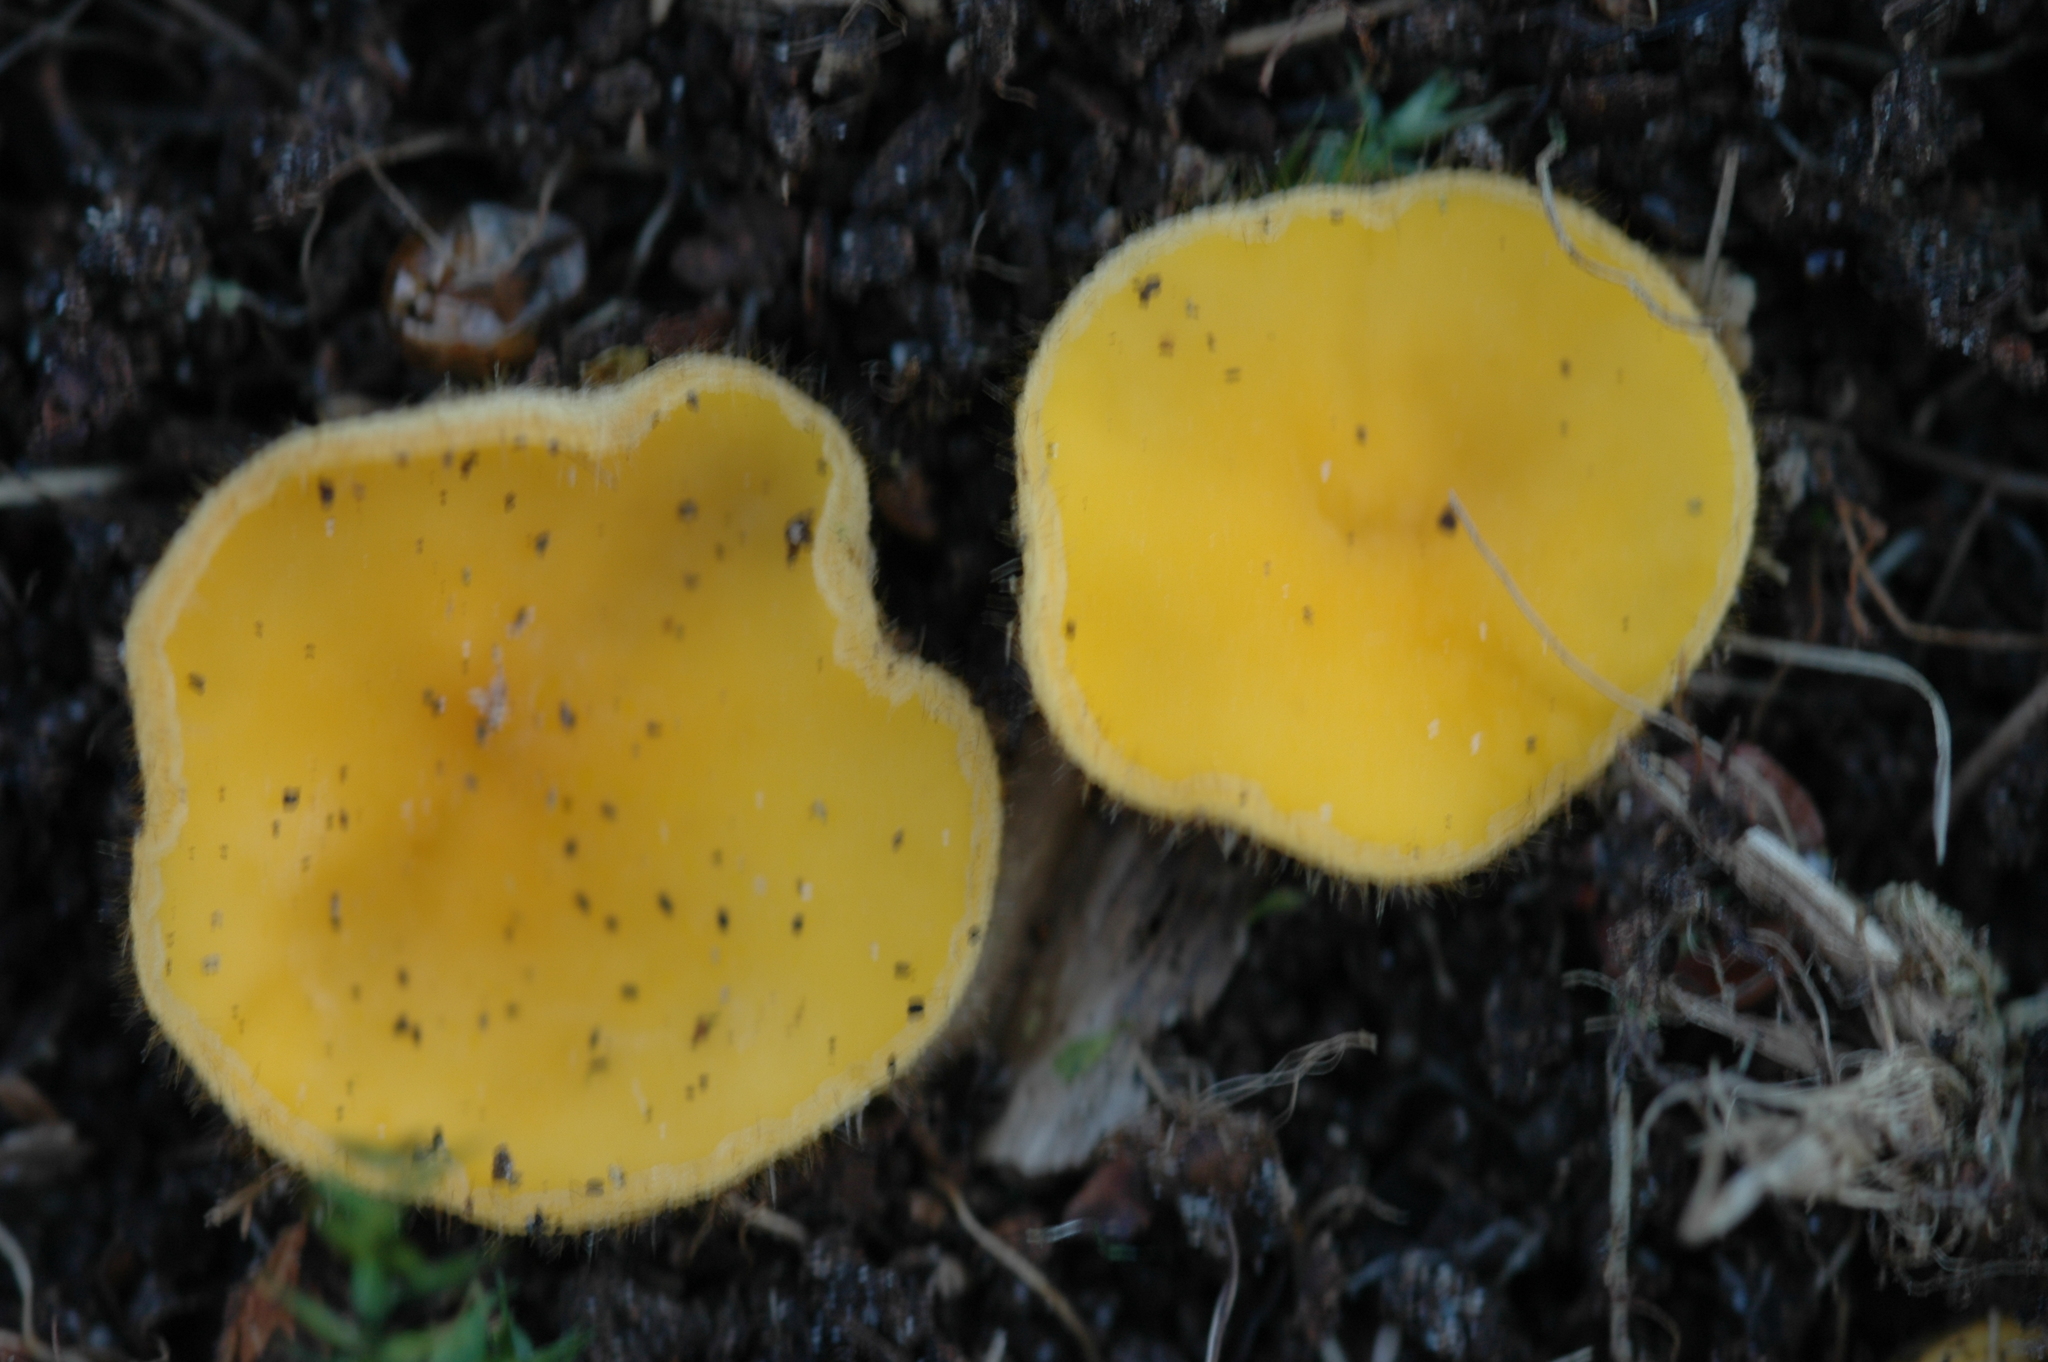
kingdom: Fungi
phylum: Ascomycota
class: Pezizomycetes
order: Pezizales
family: Pyronemataceae
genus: Cheilymenia
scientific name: Cheilymenia vitellina
